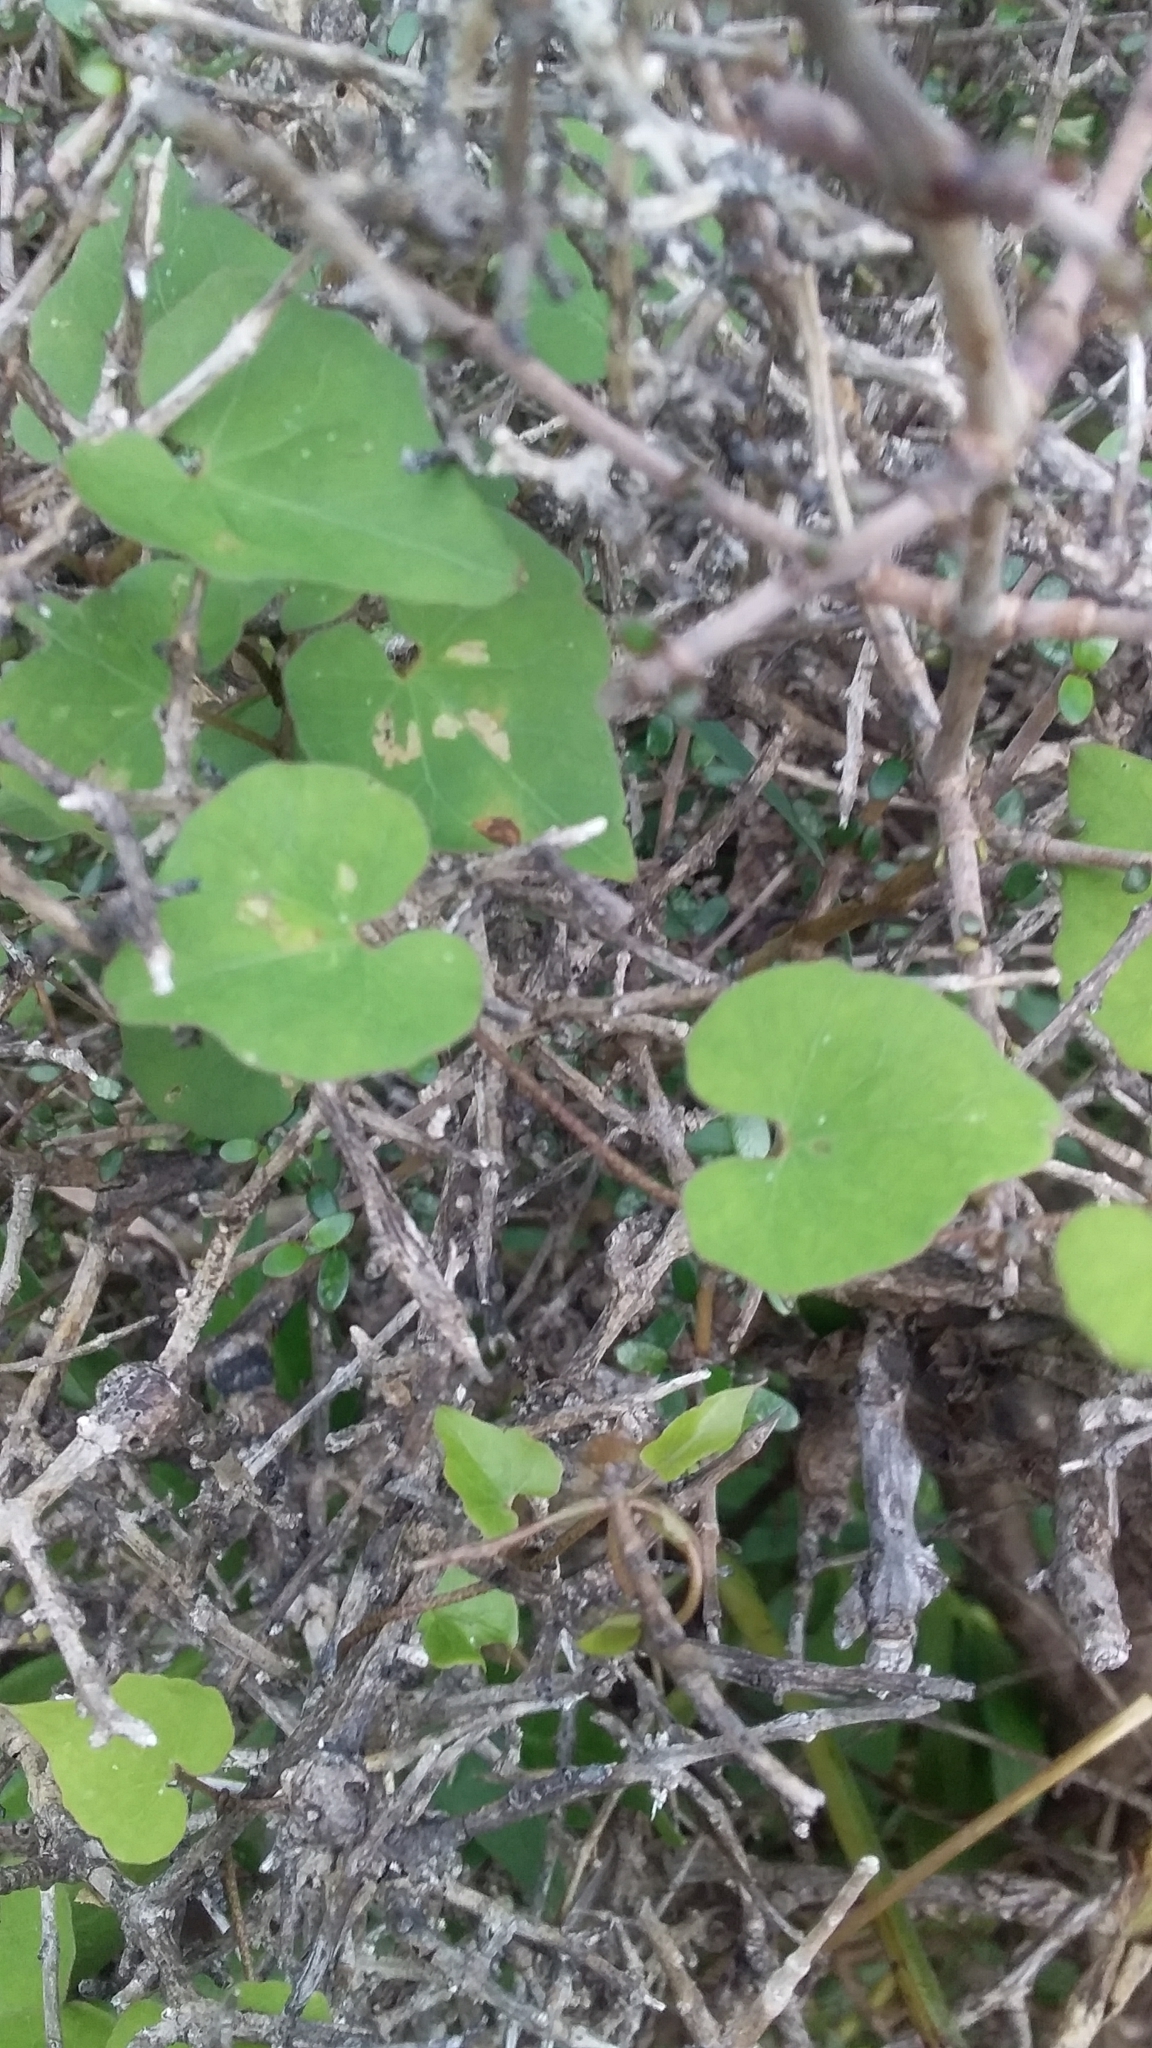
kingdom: Plantae
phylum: Tracheophyta
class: Magnoliopsida
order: Solanales
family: Convolvulaceae
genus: Calystegia
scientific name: Calystegia tuguriorum
